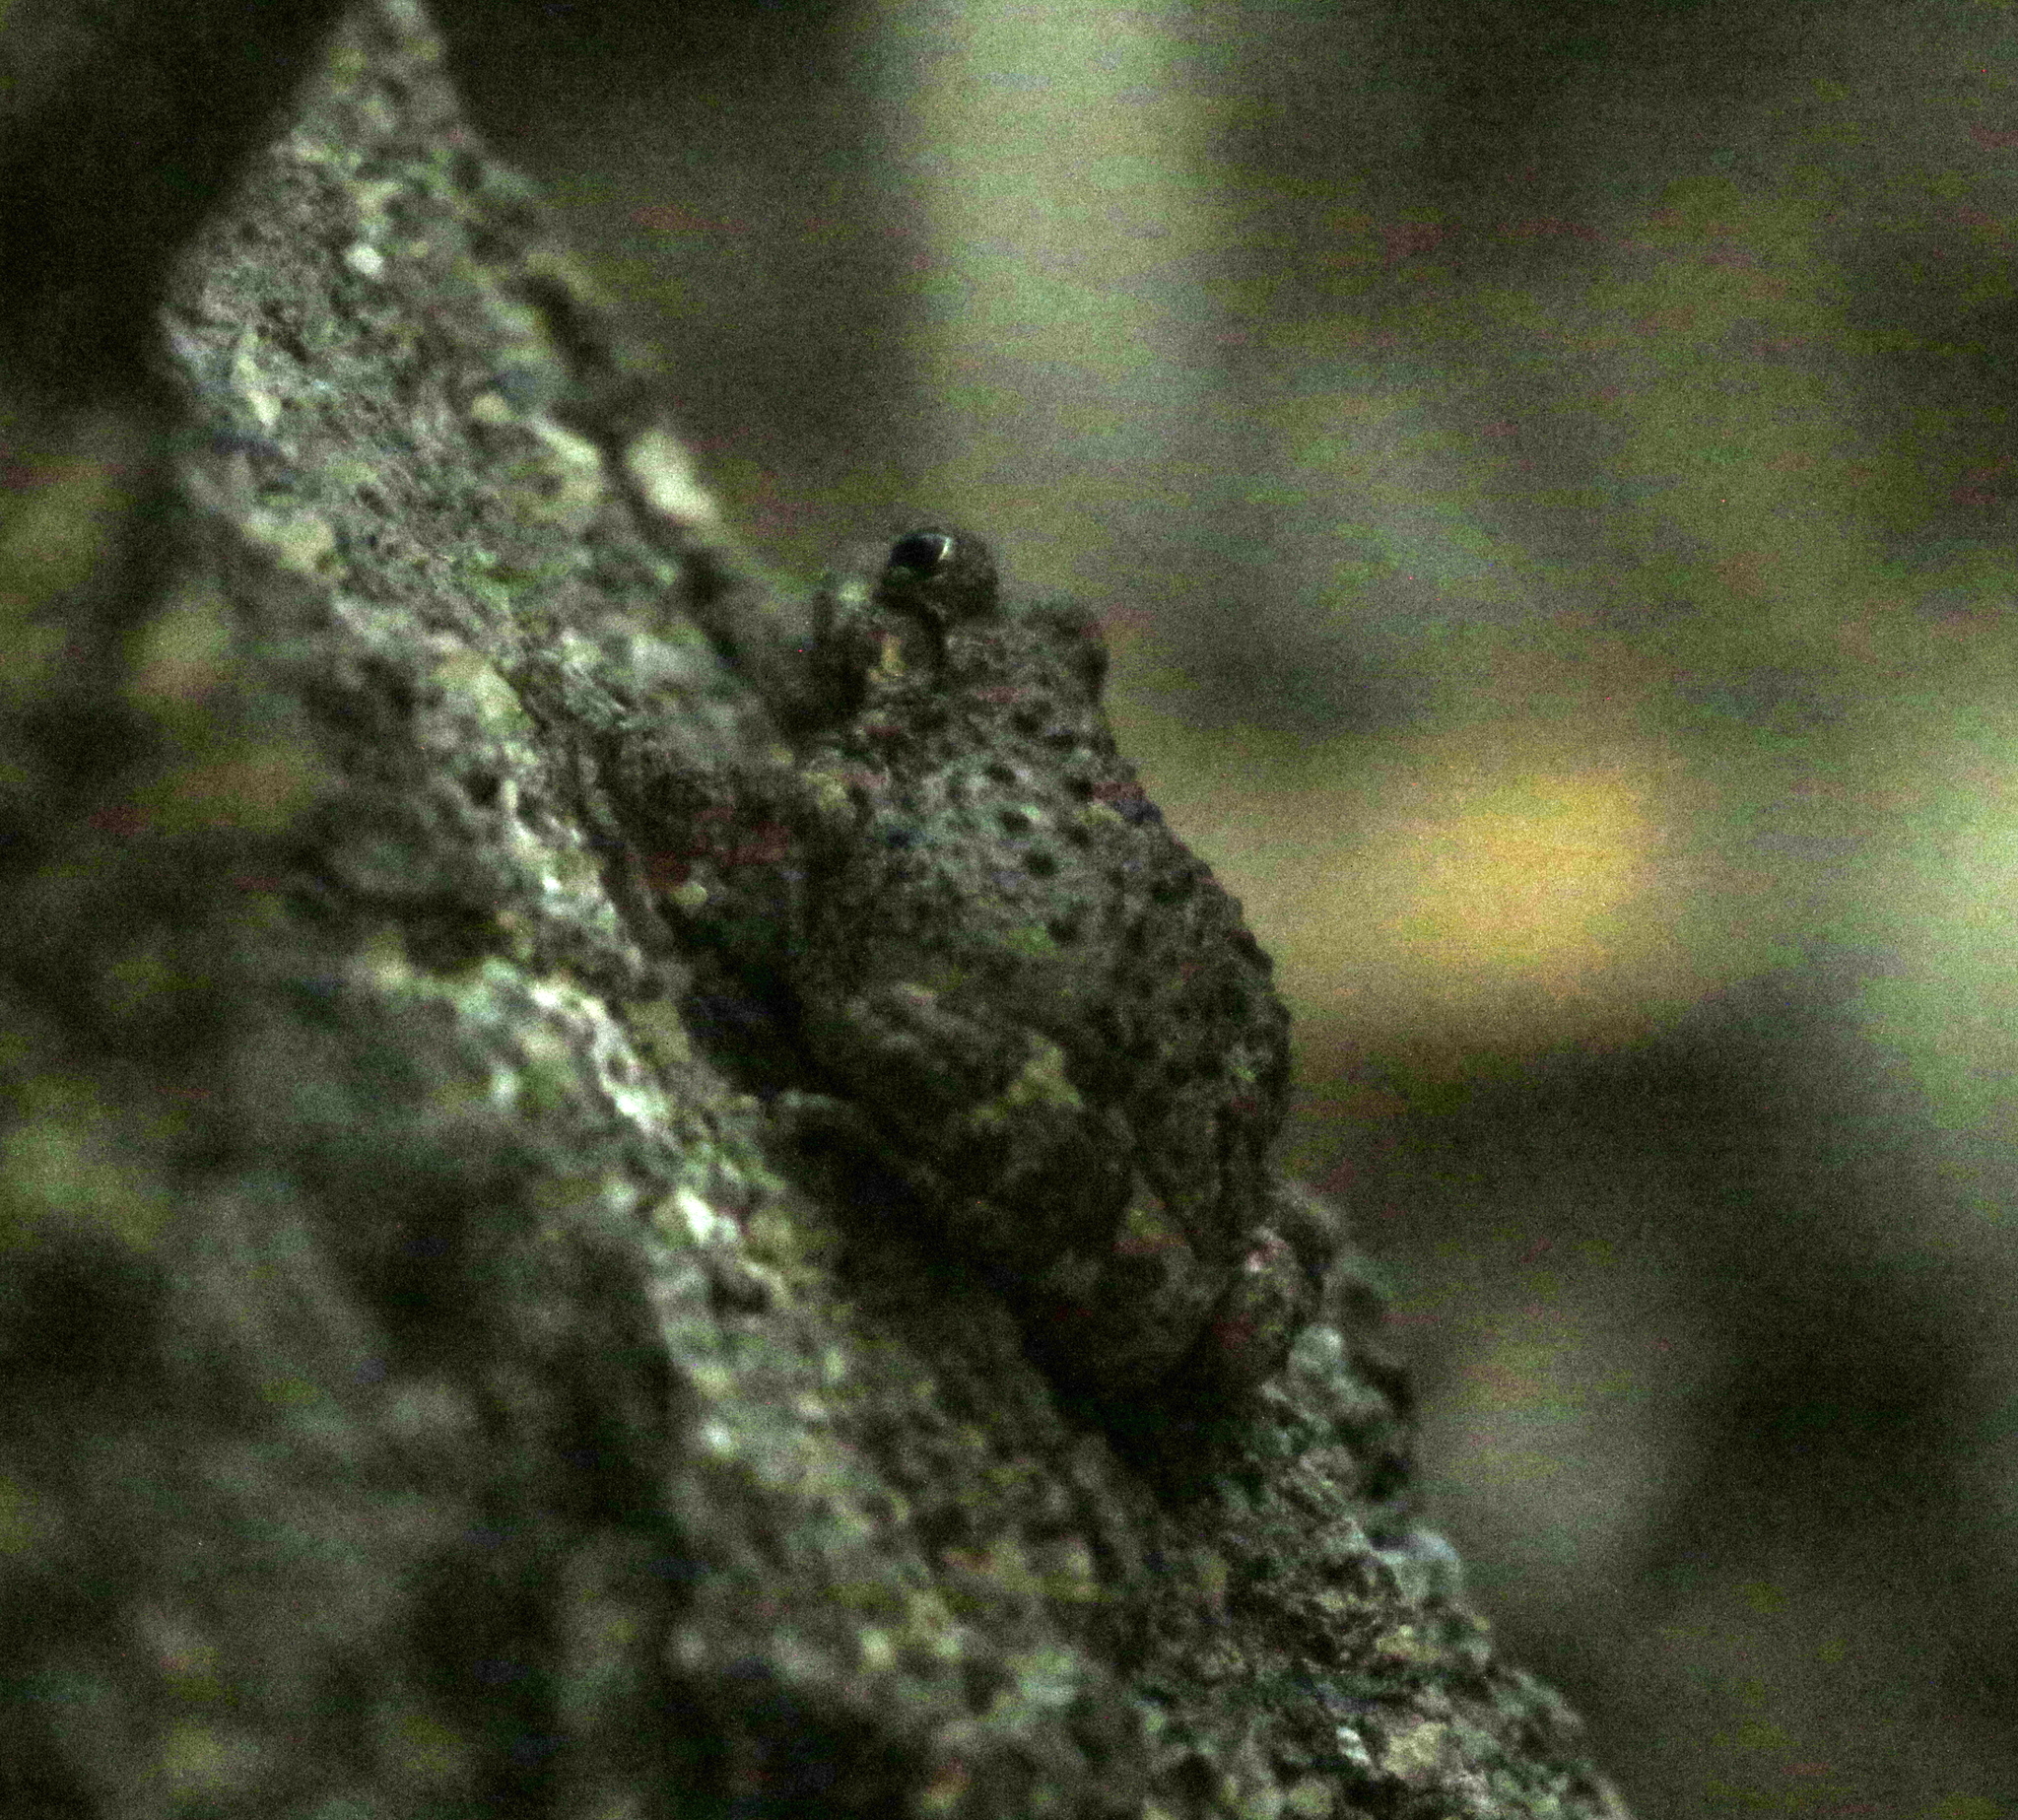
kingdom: Animalia
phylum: Chordata
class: Amphibia
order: Anura
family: Hylidae
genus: Dryophytes
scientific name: Dryophytes arenicolor
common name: Canyon treefrog
